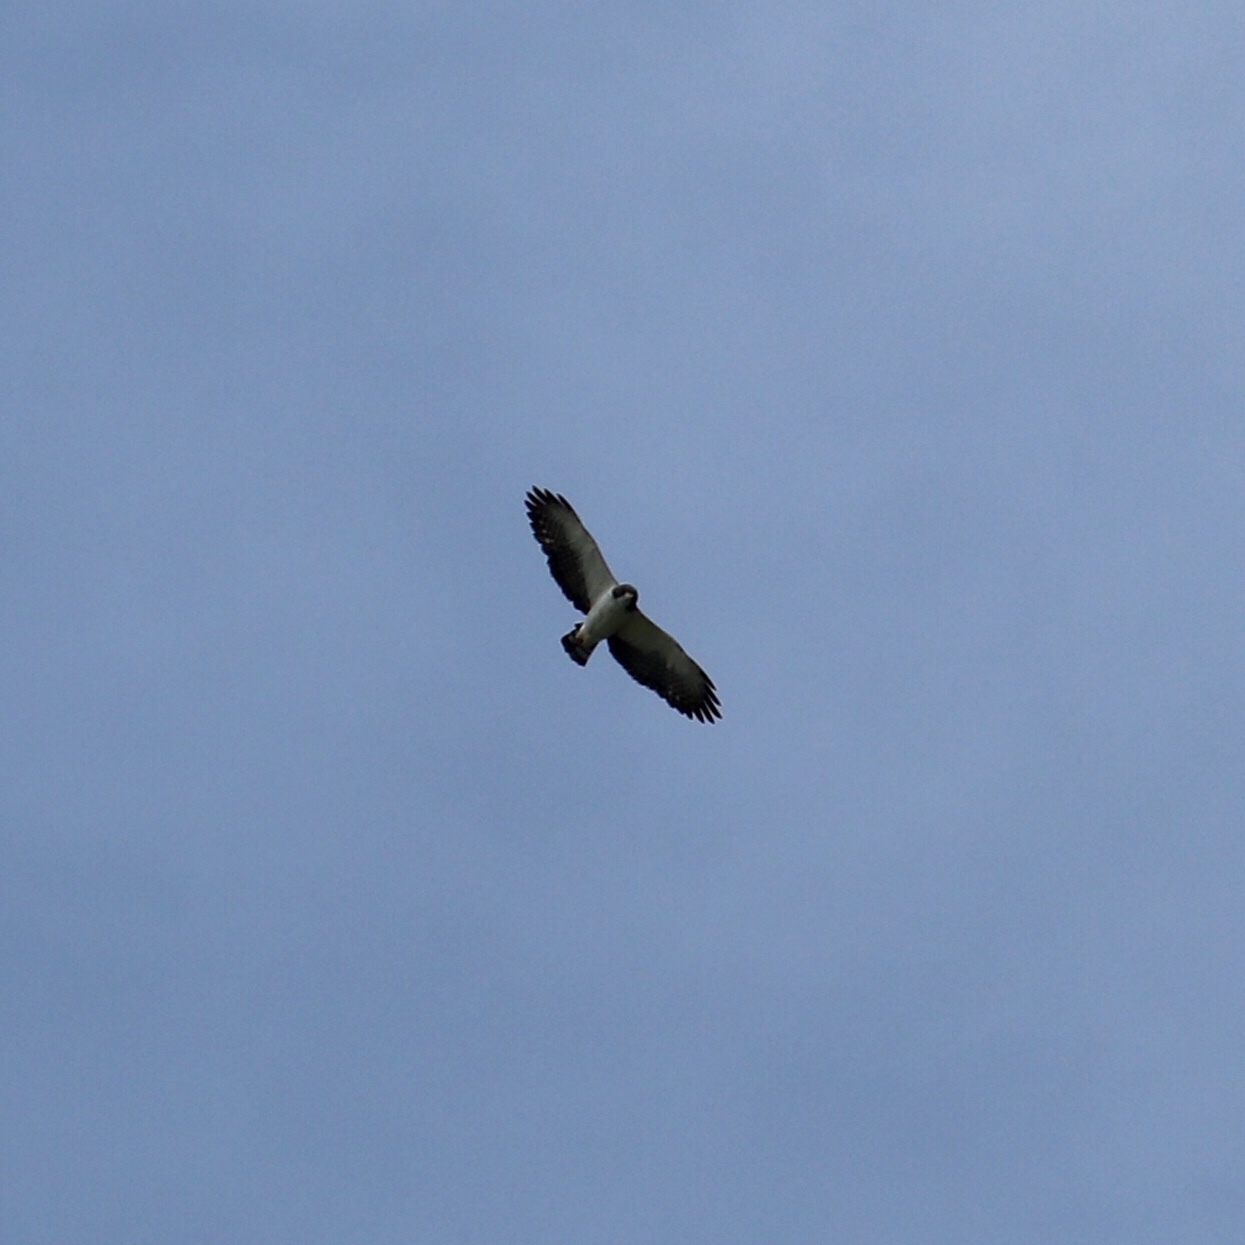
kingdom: Animalia
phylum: Chordata
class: Aves
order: Accipitriformes
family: Accipitridae
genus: Buteo
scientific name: Buteo brachyurus
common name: Short-tailed hawk
